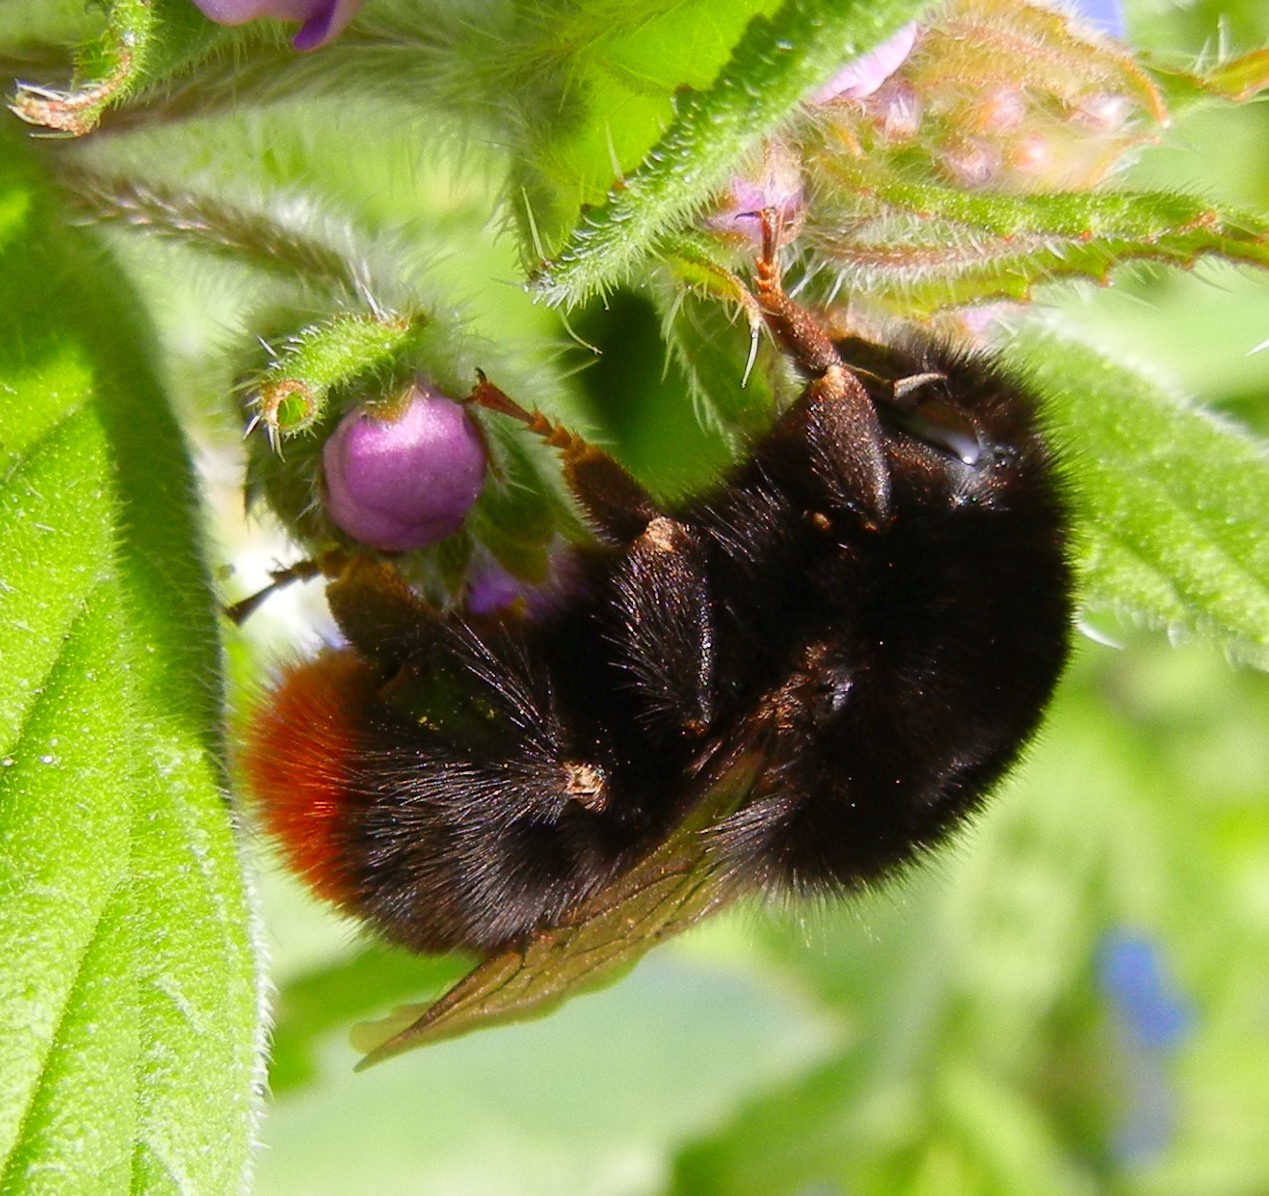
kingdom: Animalia
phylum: Arthropoda
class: Insecta
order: Hymenoptera
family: Apidae
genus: Bombus
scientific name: Bombus lapidarius
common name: Large red-tailed humble-bee
